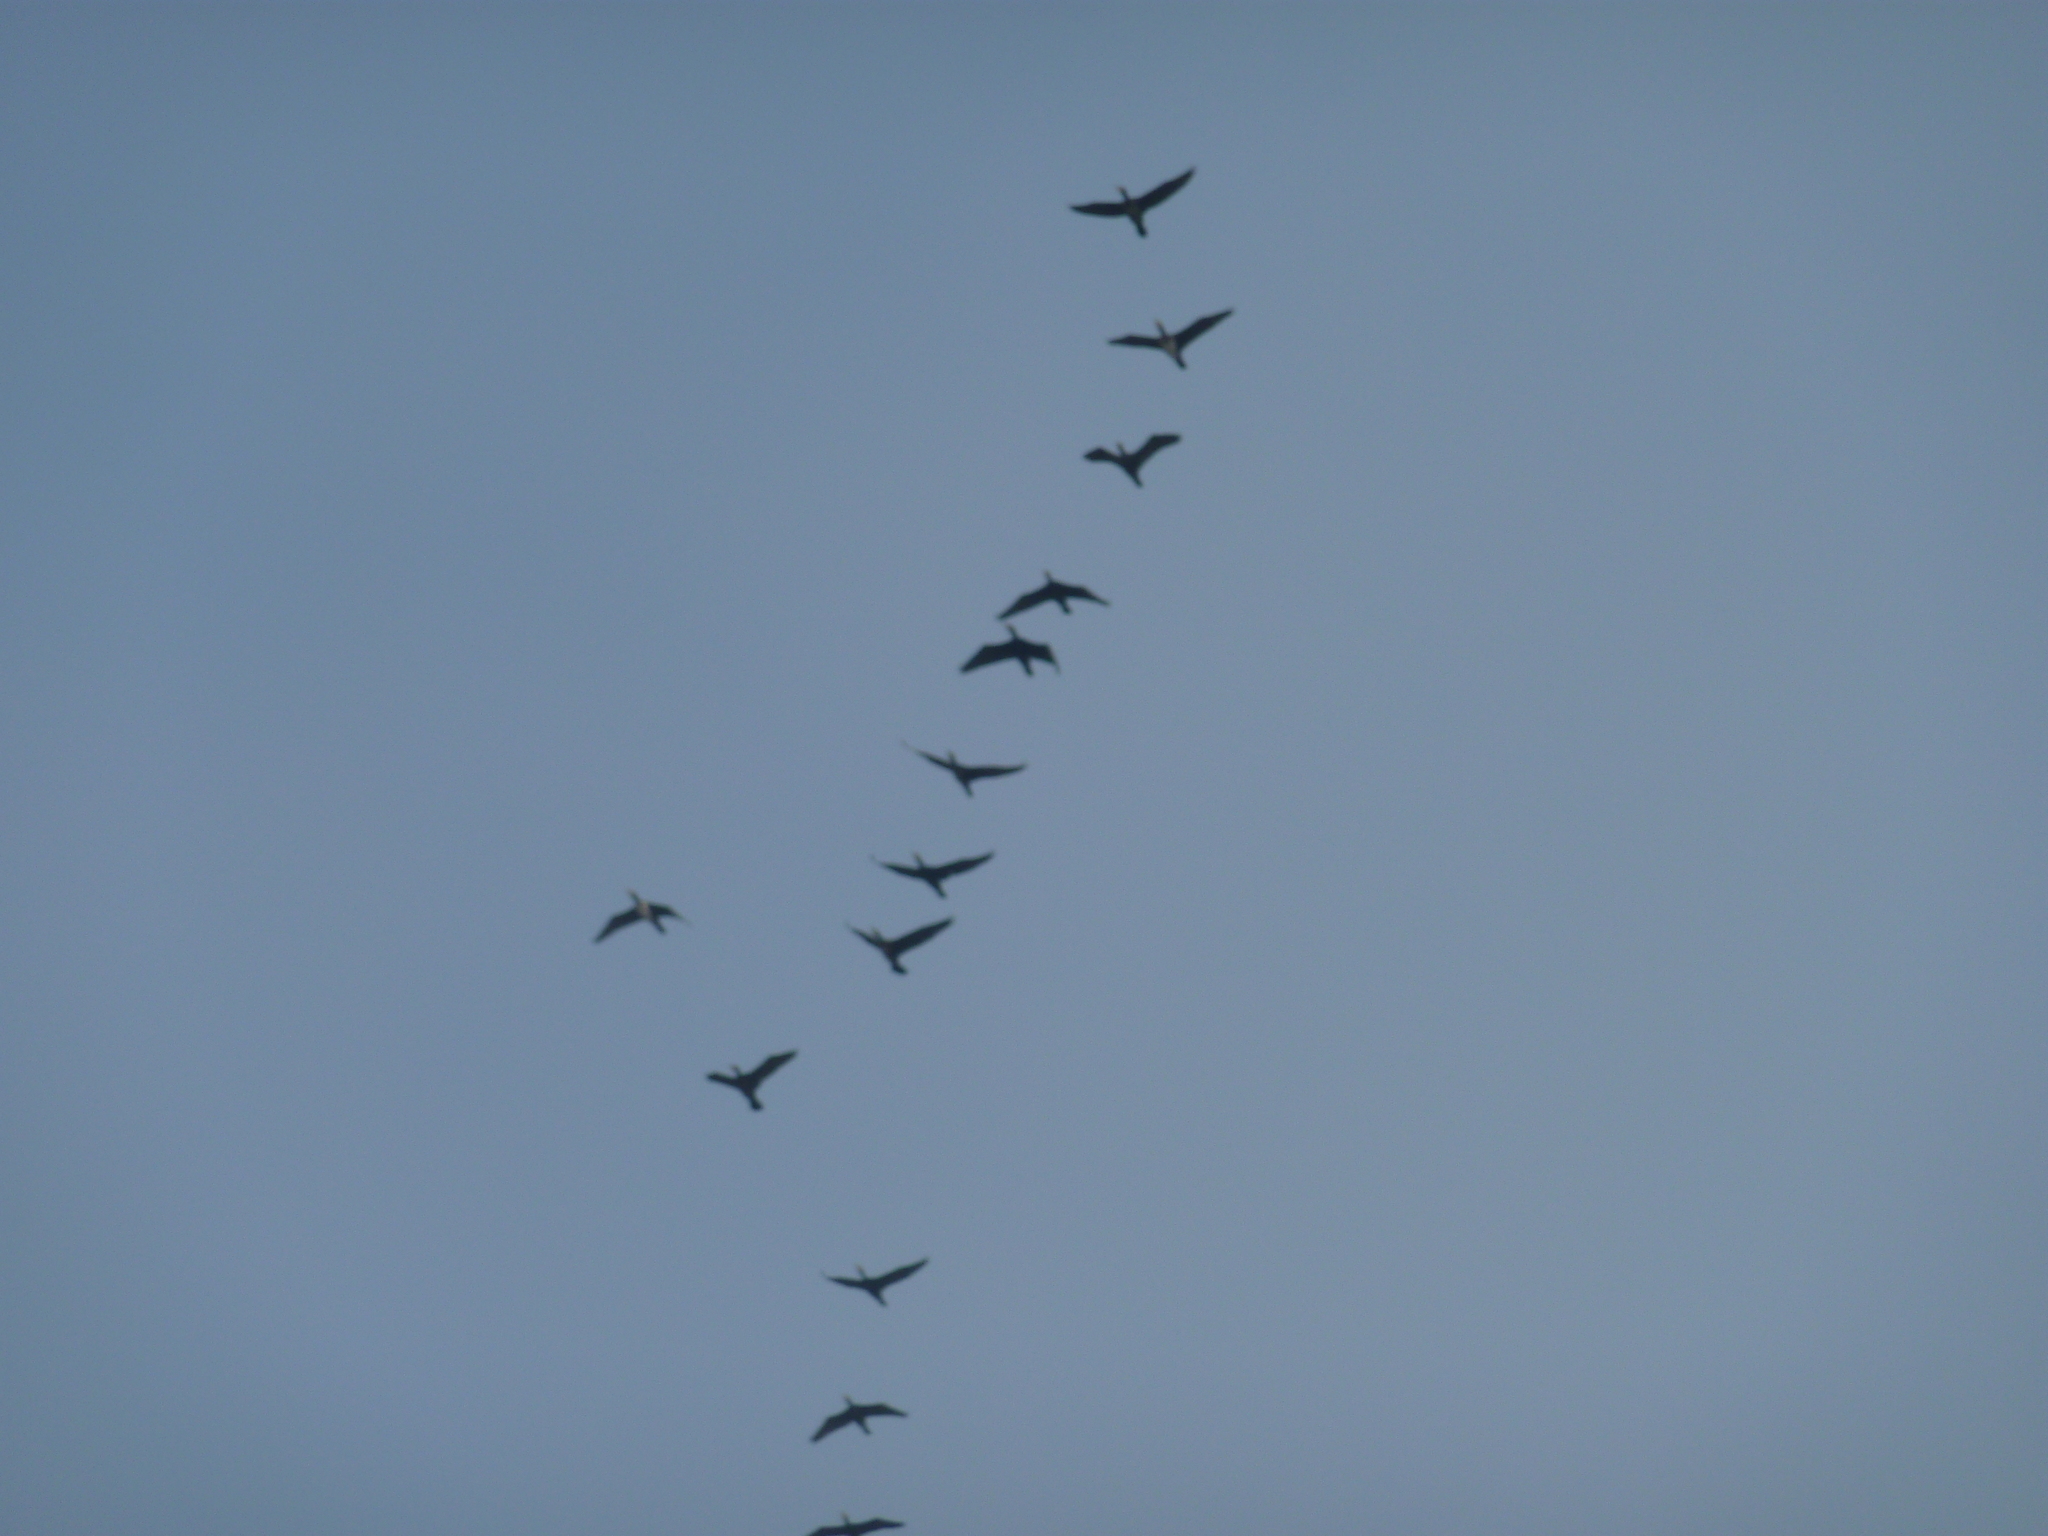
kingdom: Animalia
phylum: Chordata
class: Aves
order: Suliformes
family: Phalacrocoracidae
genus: Phalacrocorax
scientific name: Phalacrocorax carbo
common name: Great cormorant
